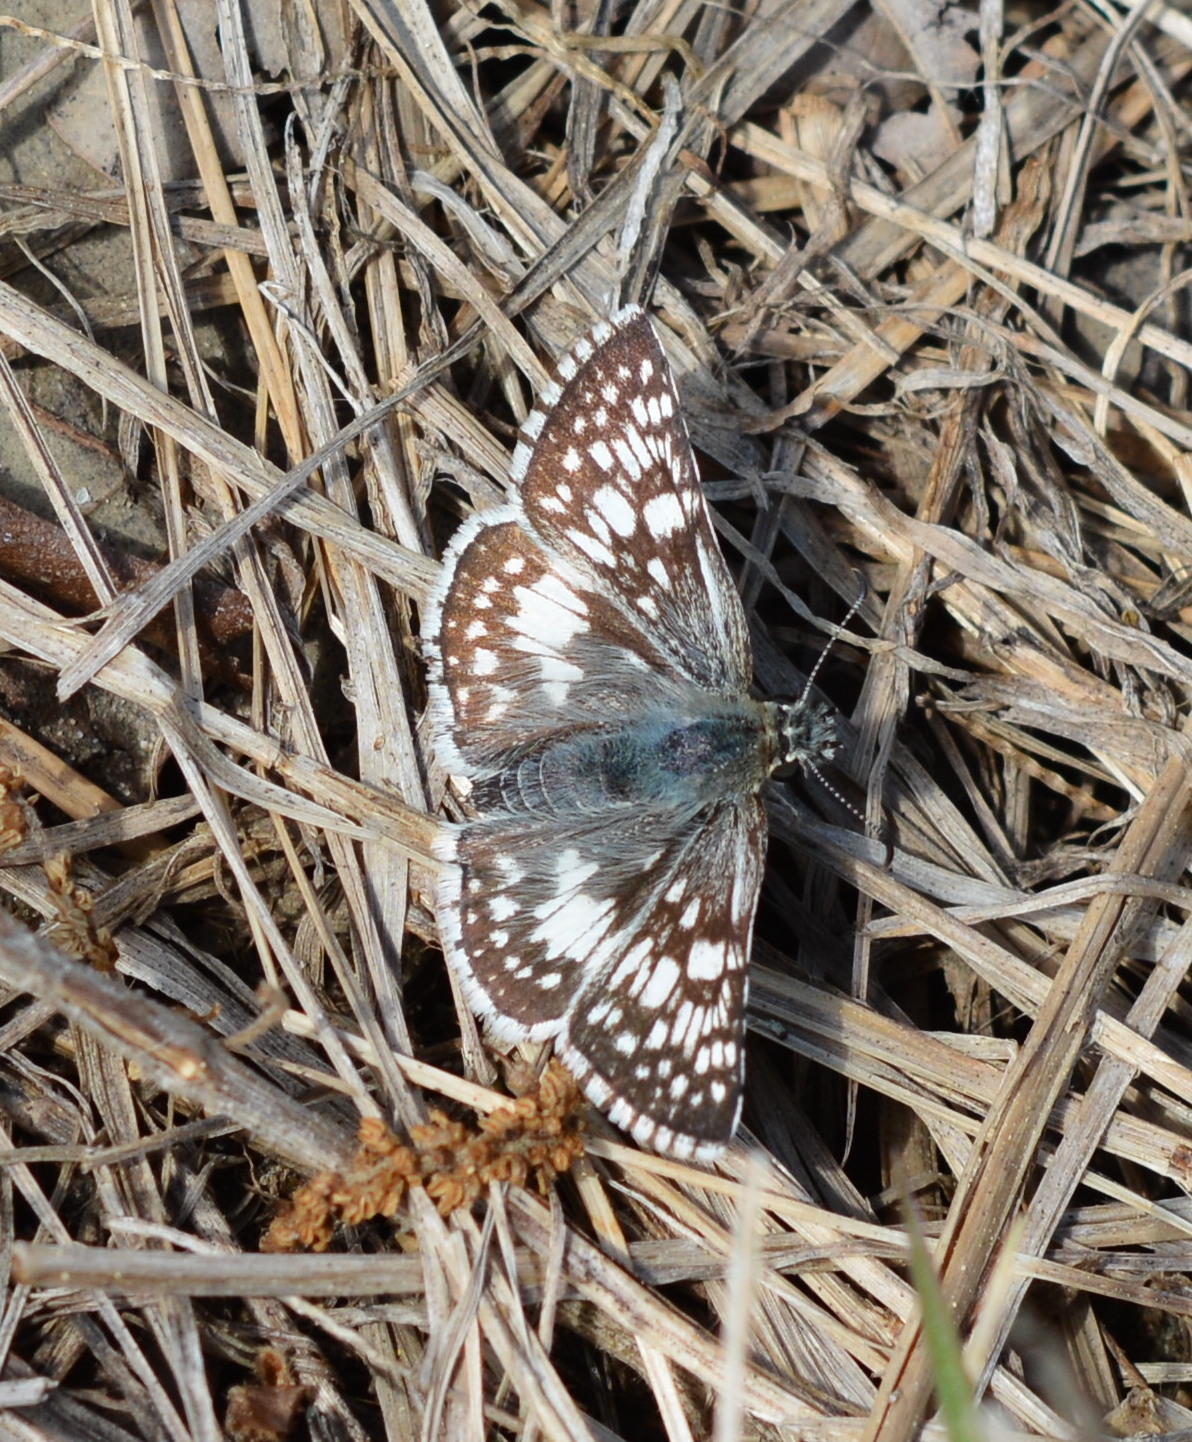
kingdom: Animalia
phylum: Arthropoda
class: Insecta
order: Lepidoptera
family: Hesperiidae
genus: Burnsius
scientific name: Burnsius
